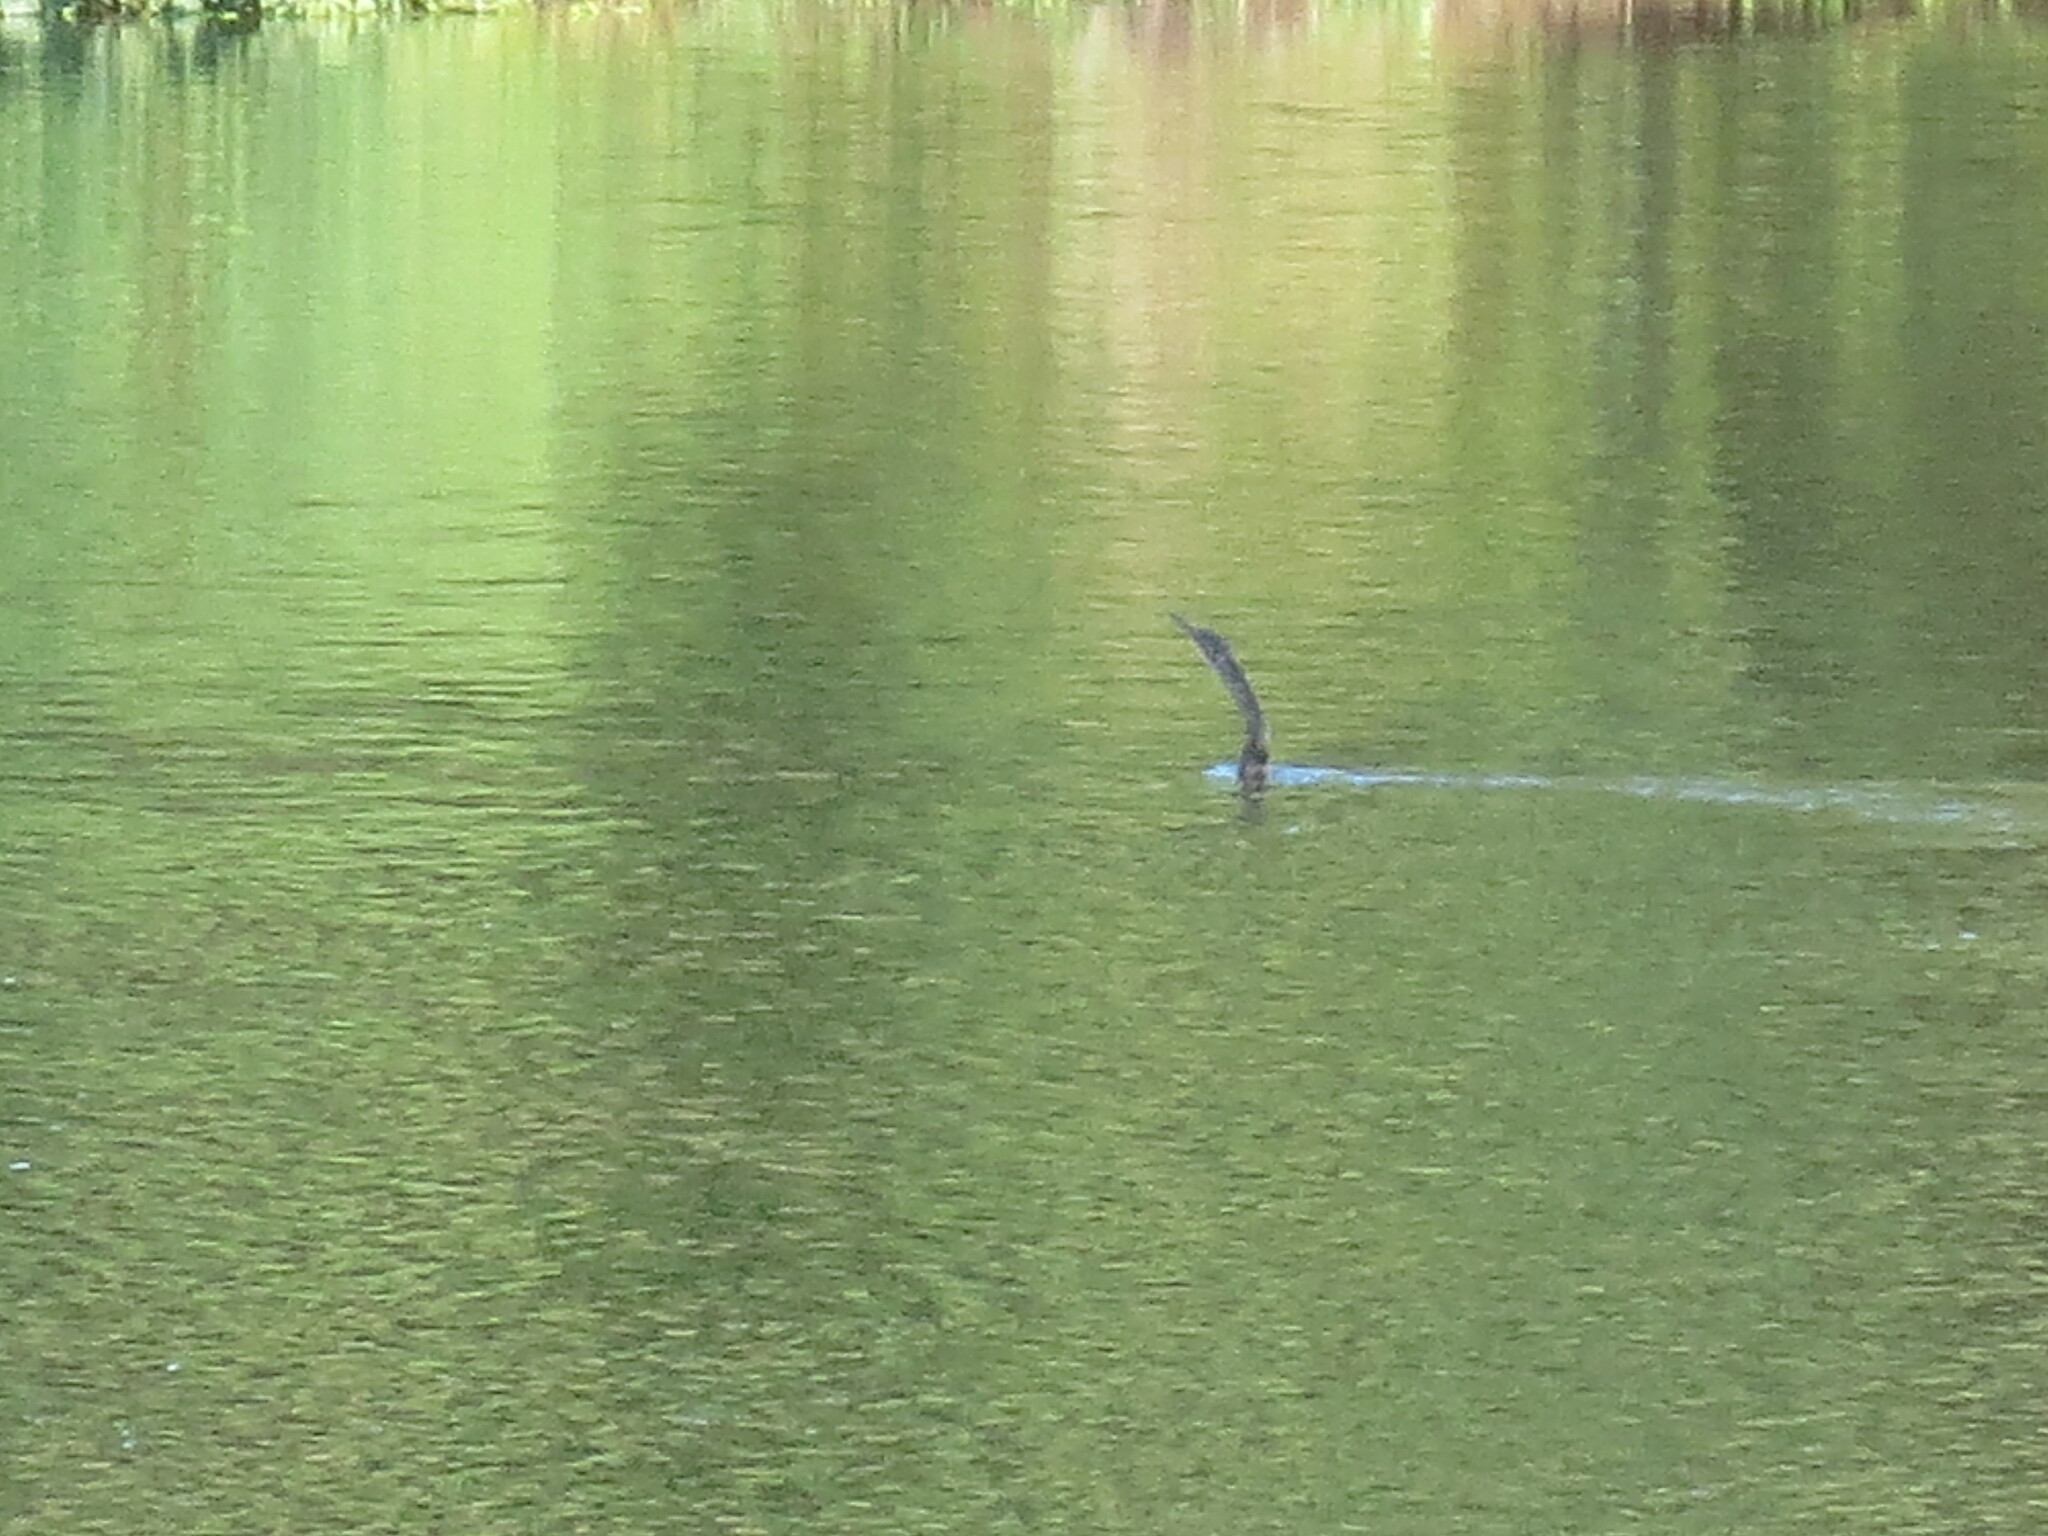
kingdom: Animalia
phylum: Chordata
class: Aves
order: Suliformes
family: Anhingidae
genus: Anhinga
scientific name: Anhinga anhinga
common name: Anhinga
